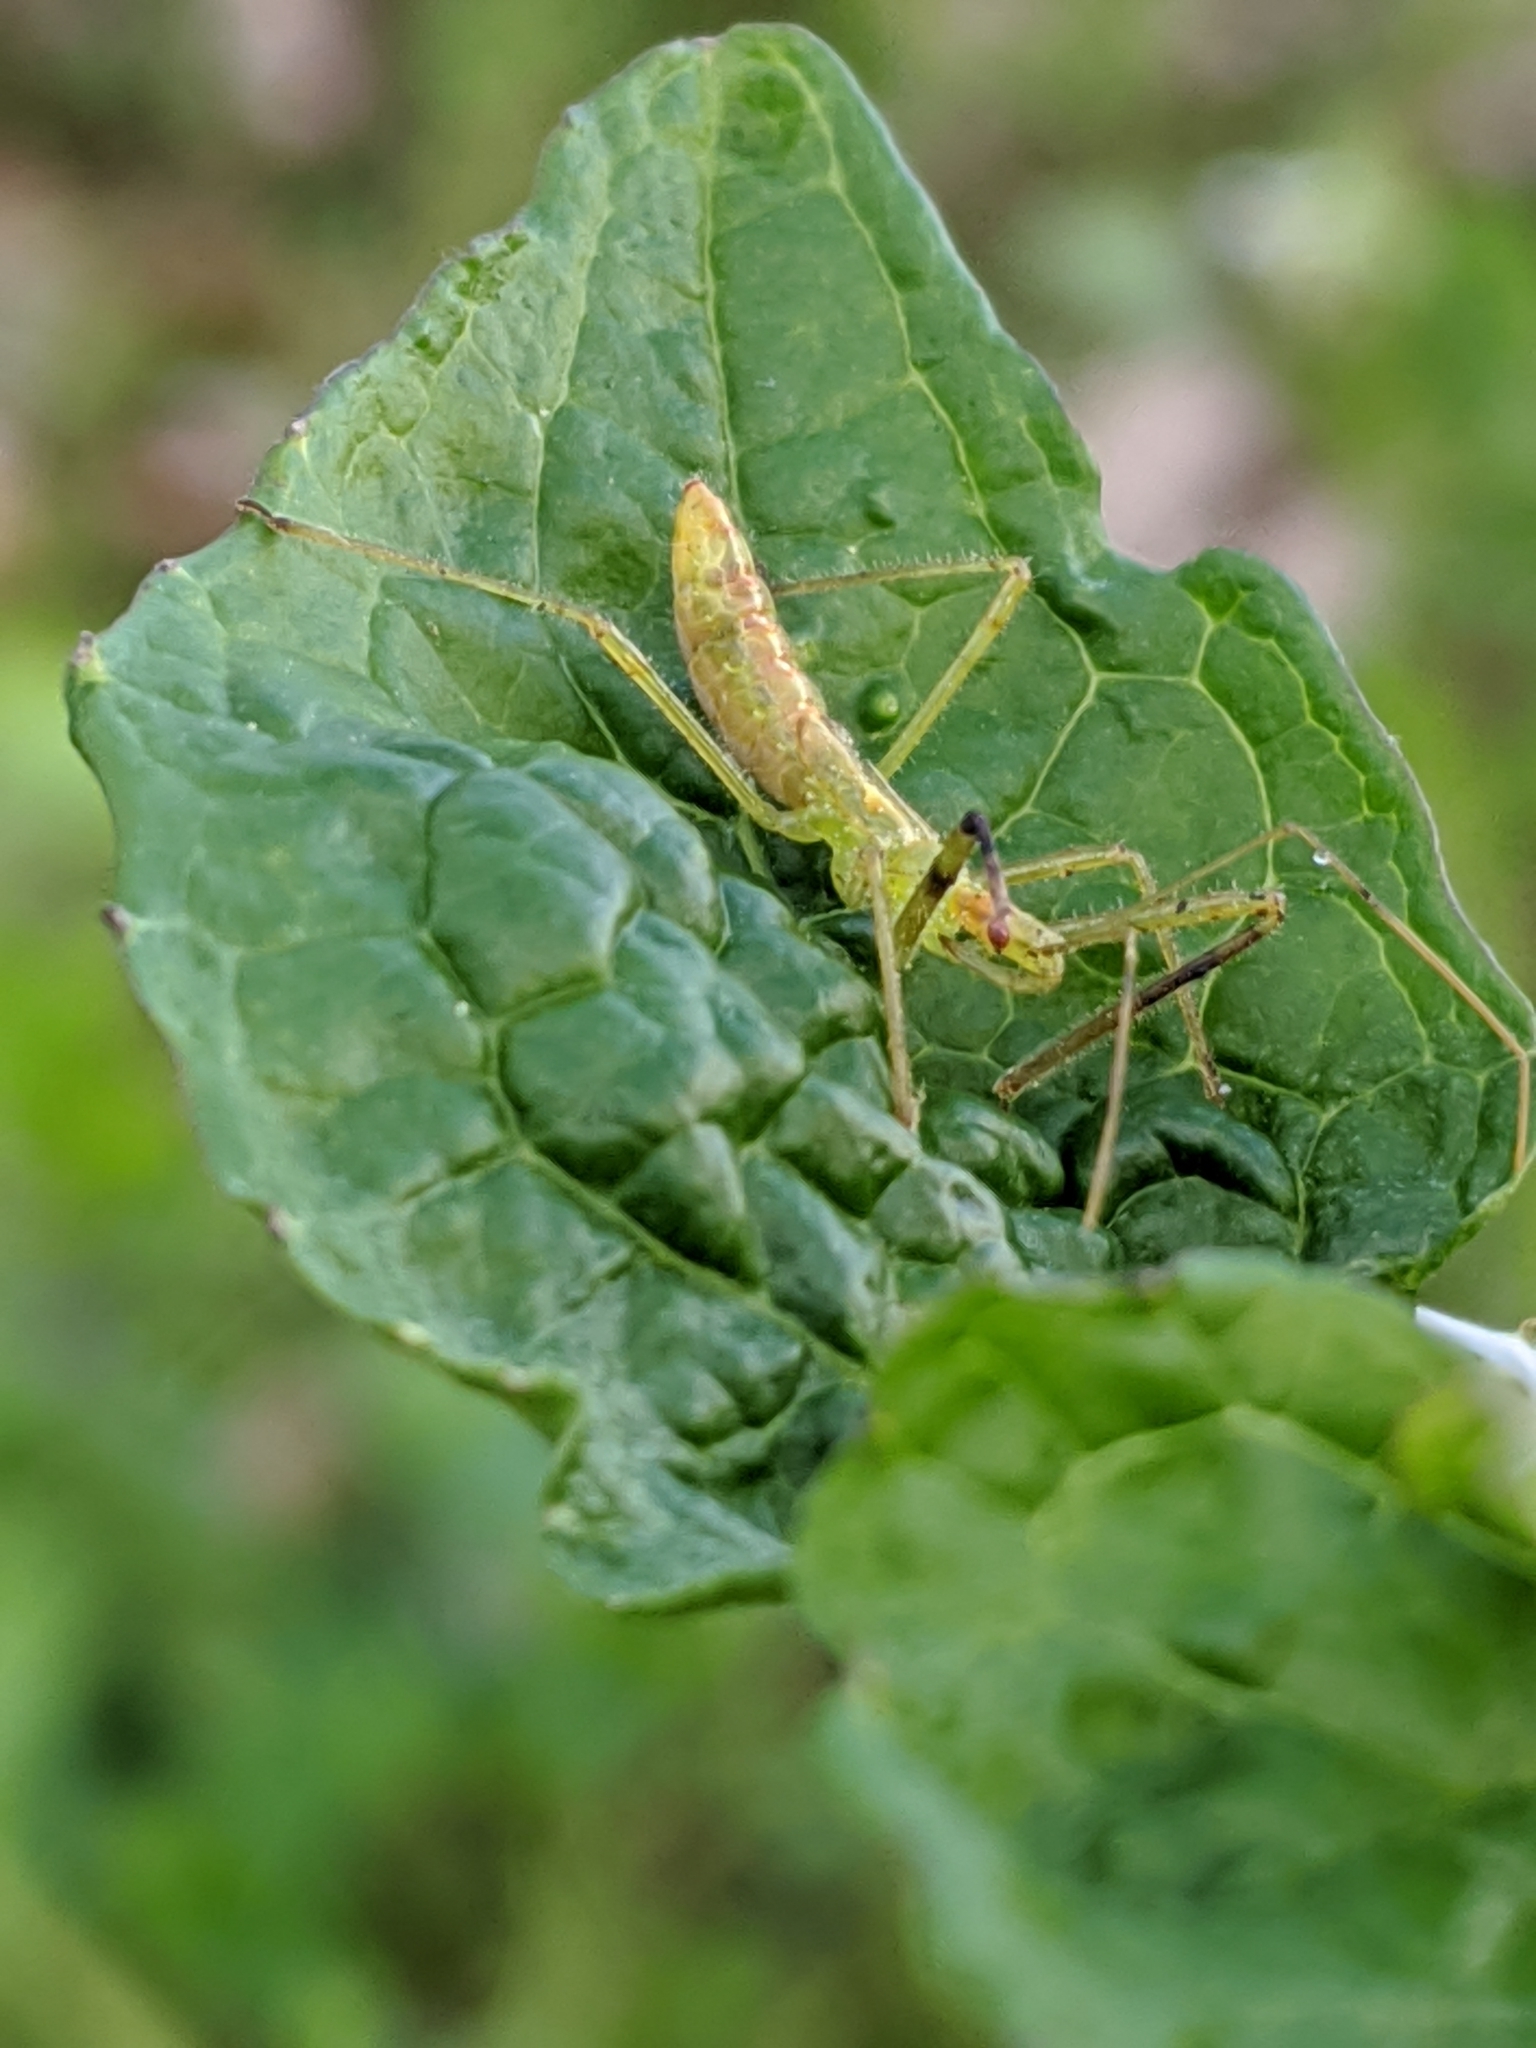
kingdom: Animalia
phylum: Arthropoda
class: Insecta
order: Hemiptera
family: Reduviidae
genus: Zelus
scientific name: Zelus luridus
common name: Pale green assassin bug
